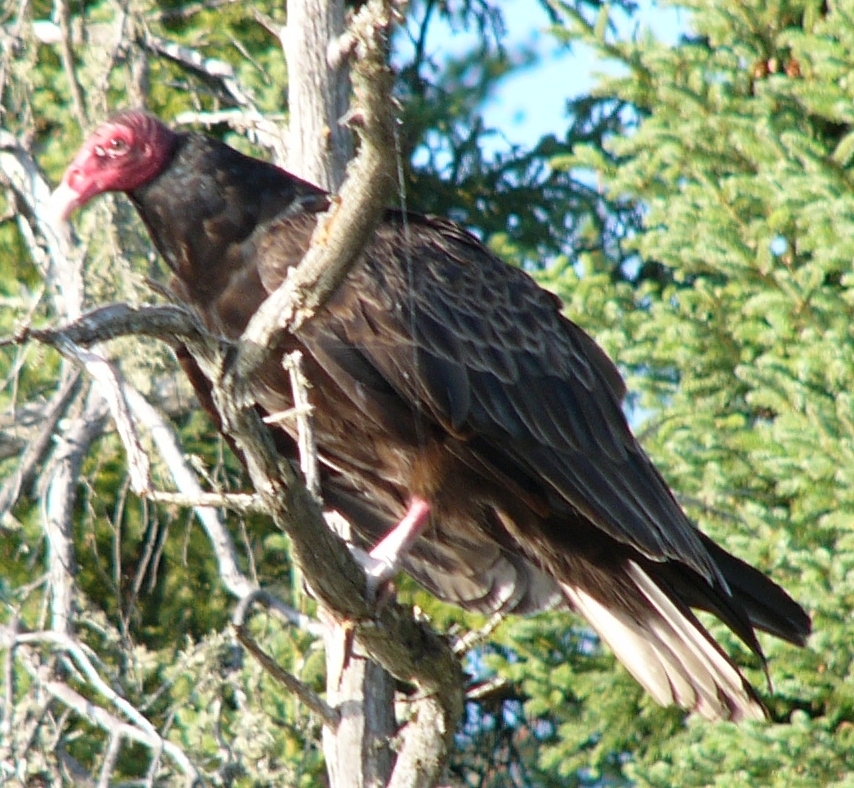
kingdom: Animalia
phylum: Chordata
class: Aves
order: Accipitriformes
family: Cathartidae
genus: Cathartes
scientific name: Cathartes aura
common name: Turkey vulture
